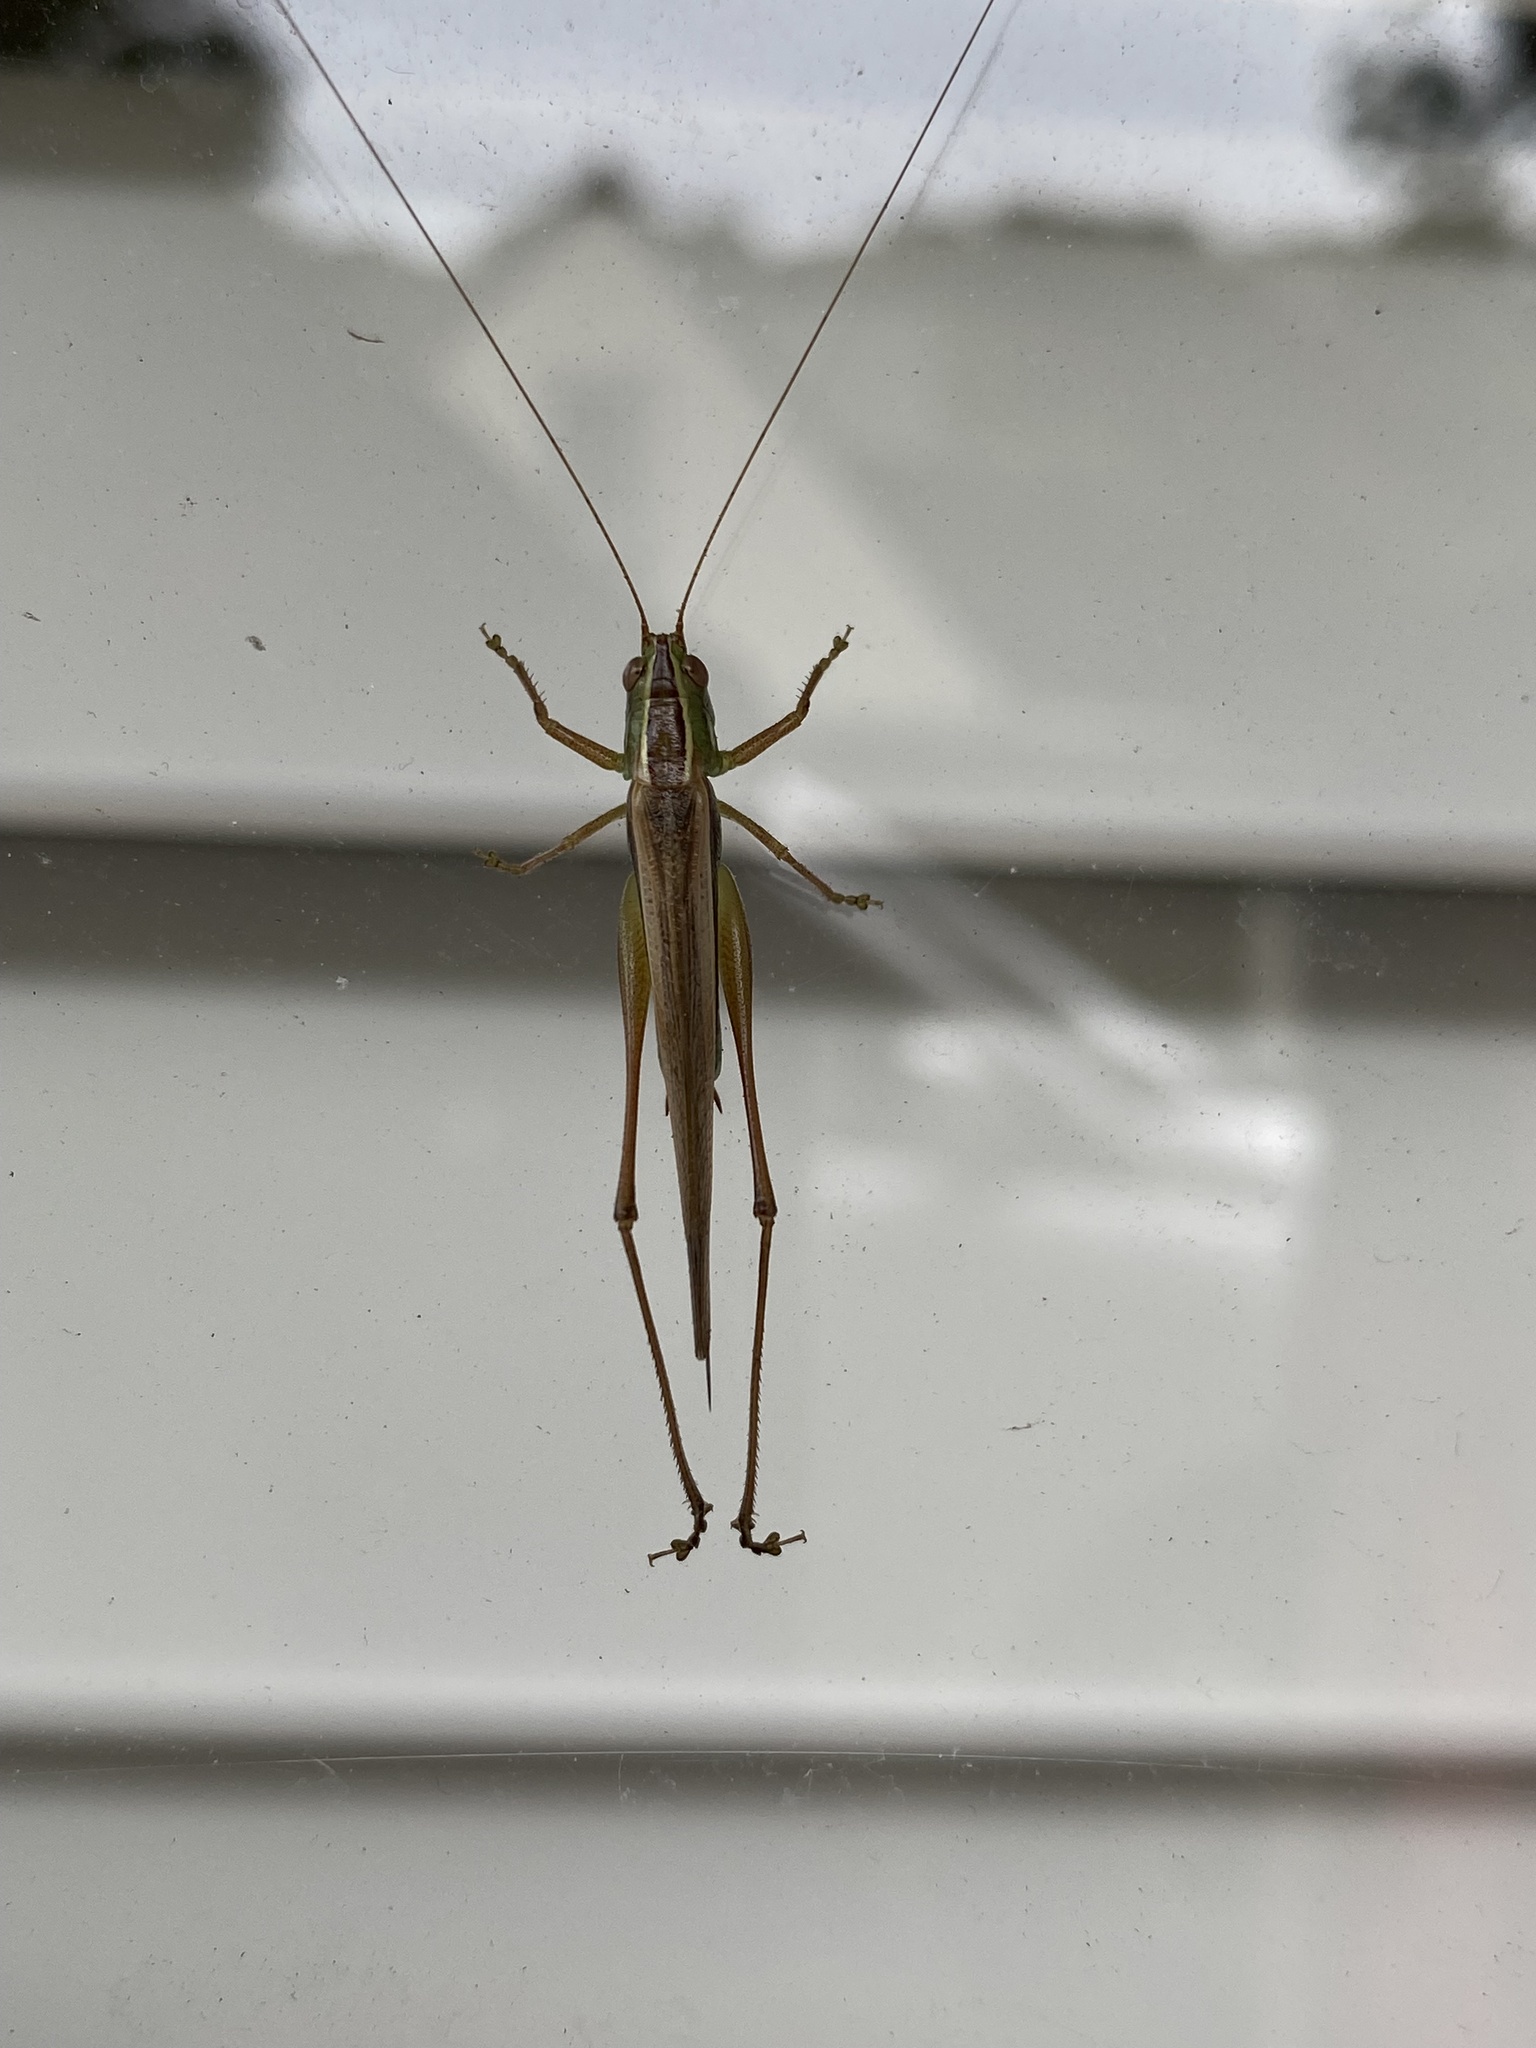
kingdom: Animalia
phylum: Arthropoda
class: Insecta
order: Orthoptera
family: Tettigoniidae
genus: Conocephalus
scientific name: Conocephalus albescens
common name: Whitish meadow katydid
